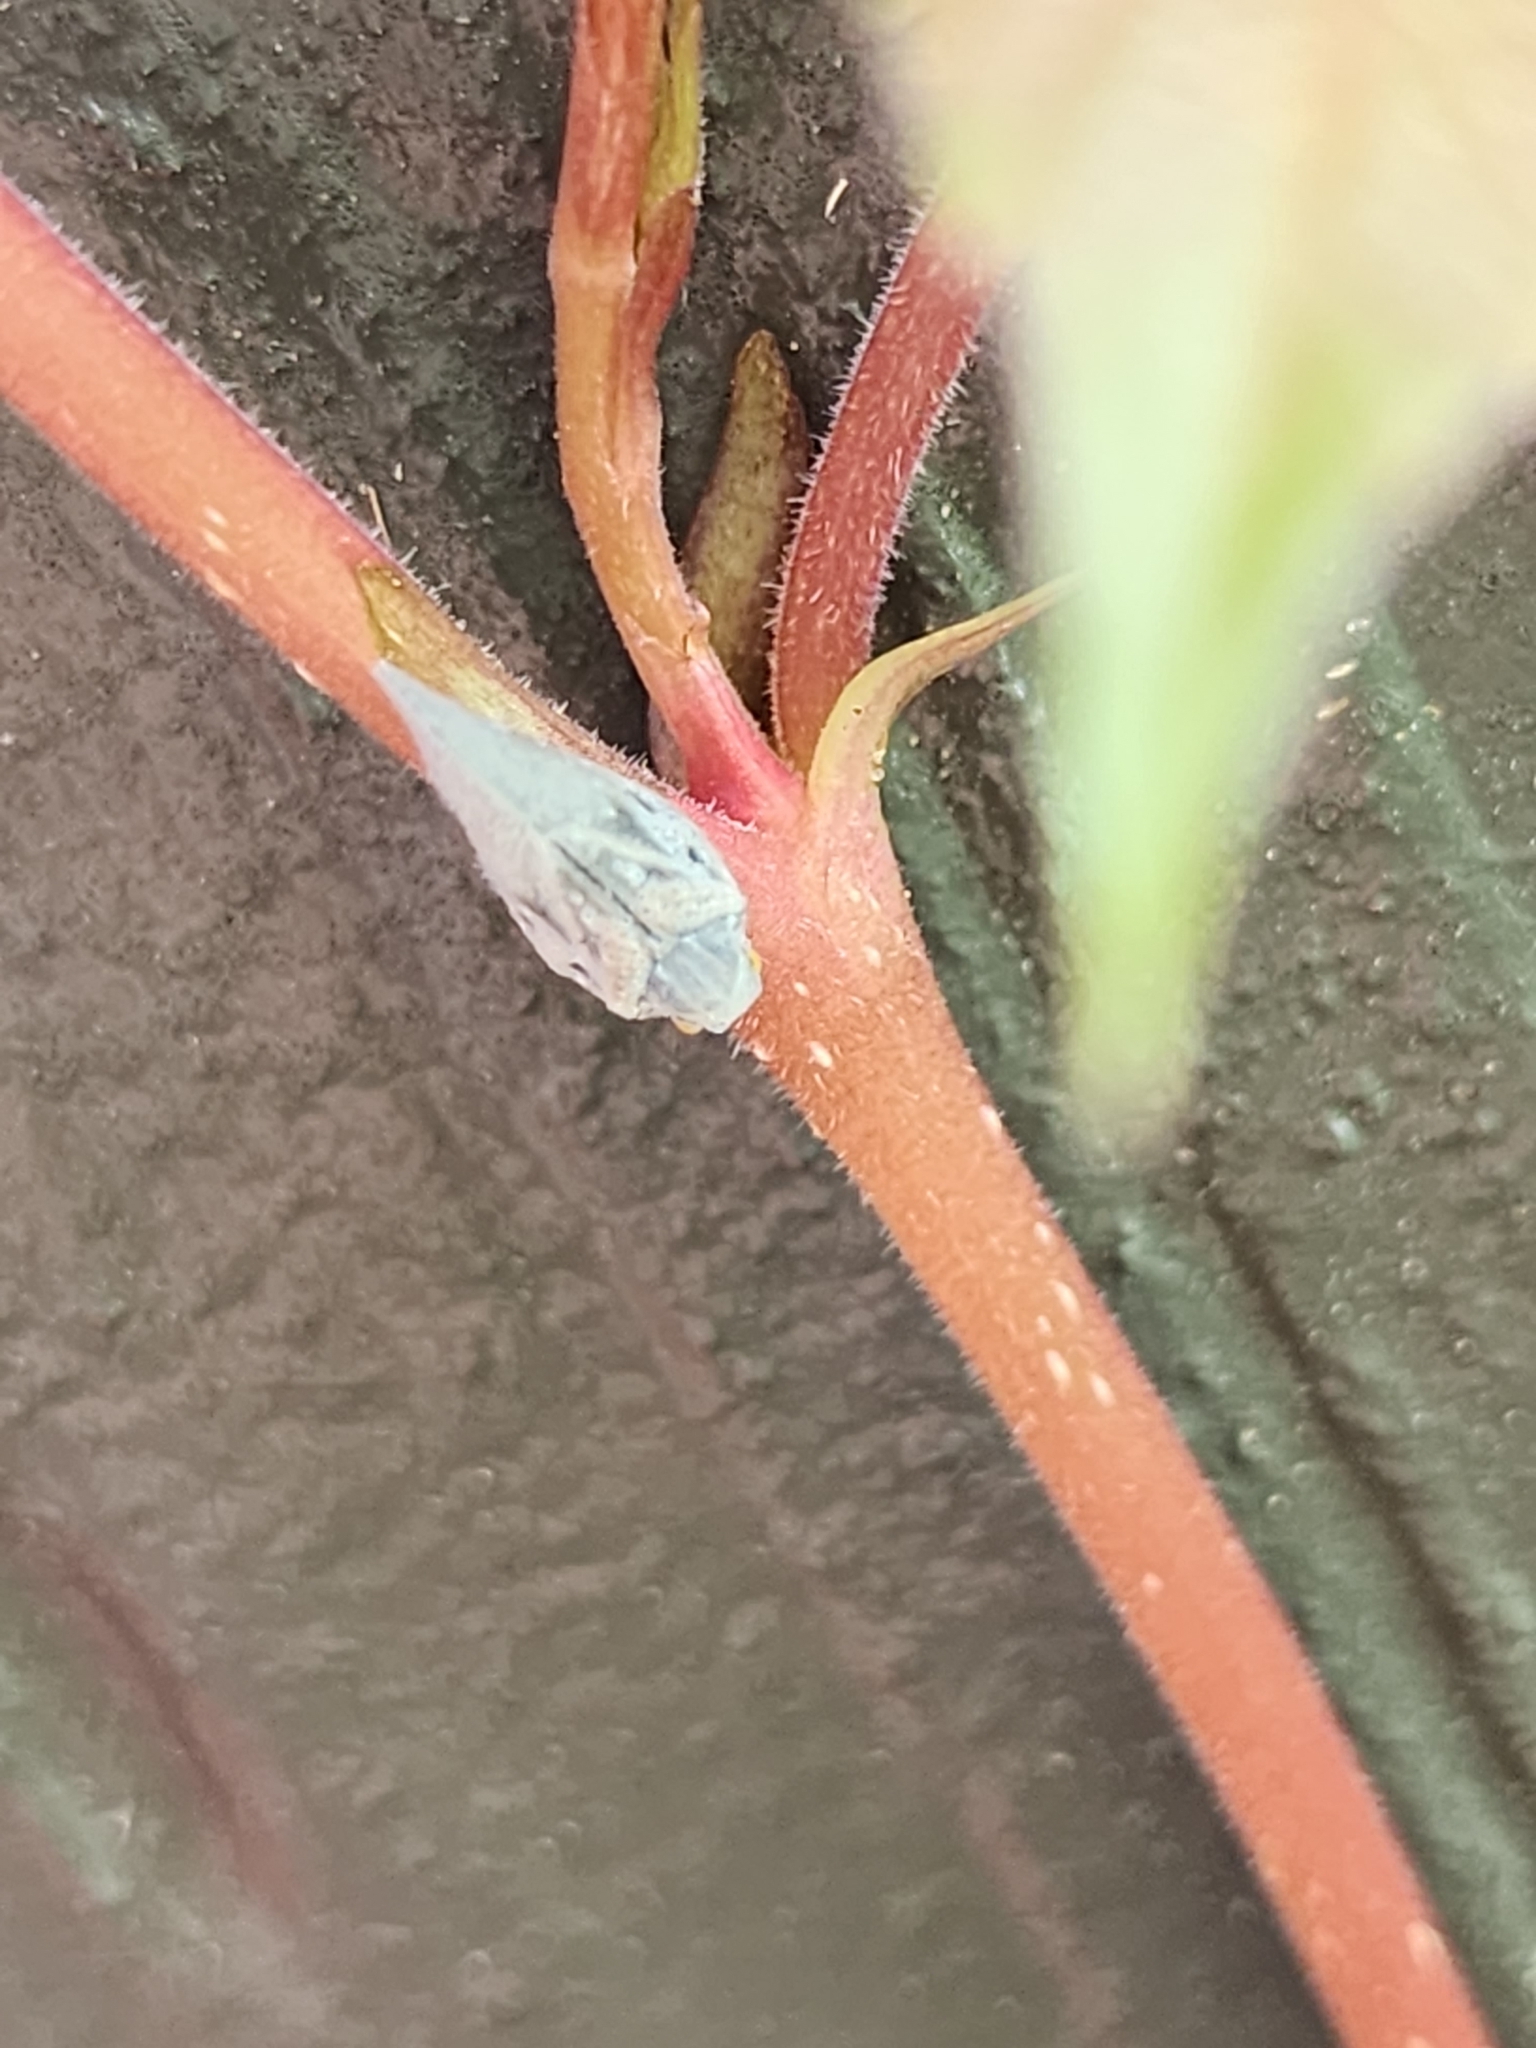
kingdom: Animalia
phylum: Arthropoda
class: Insecta
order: Hemiptera
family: Flatidae
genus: Metcalfa
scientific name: Metcalfa pruinosa
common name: Citrus flatid planthopper
